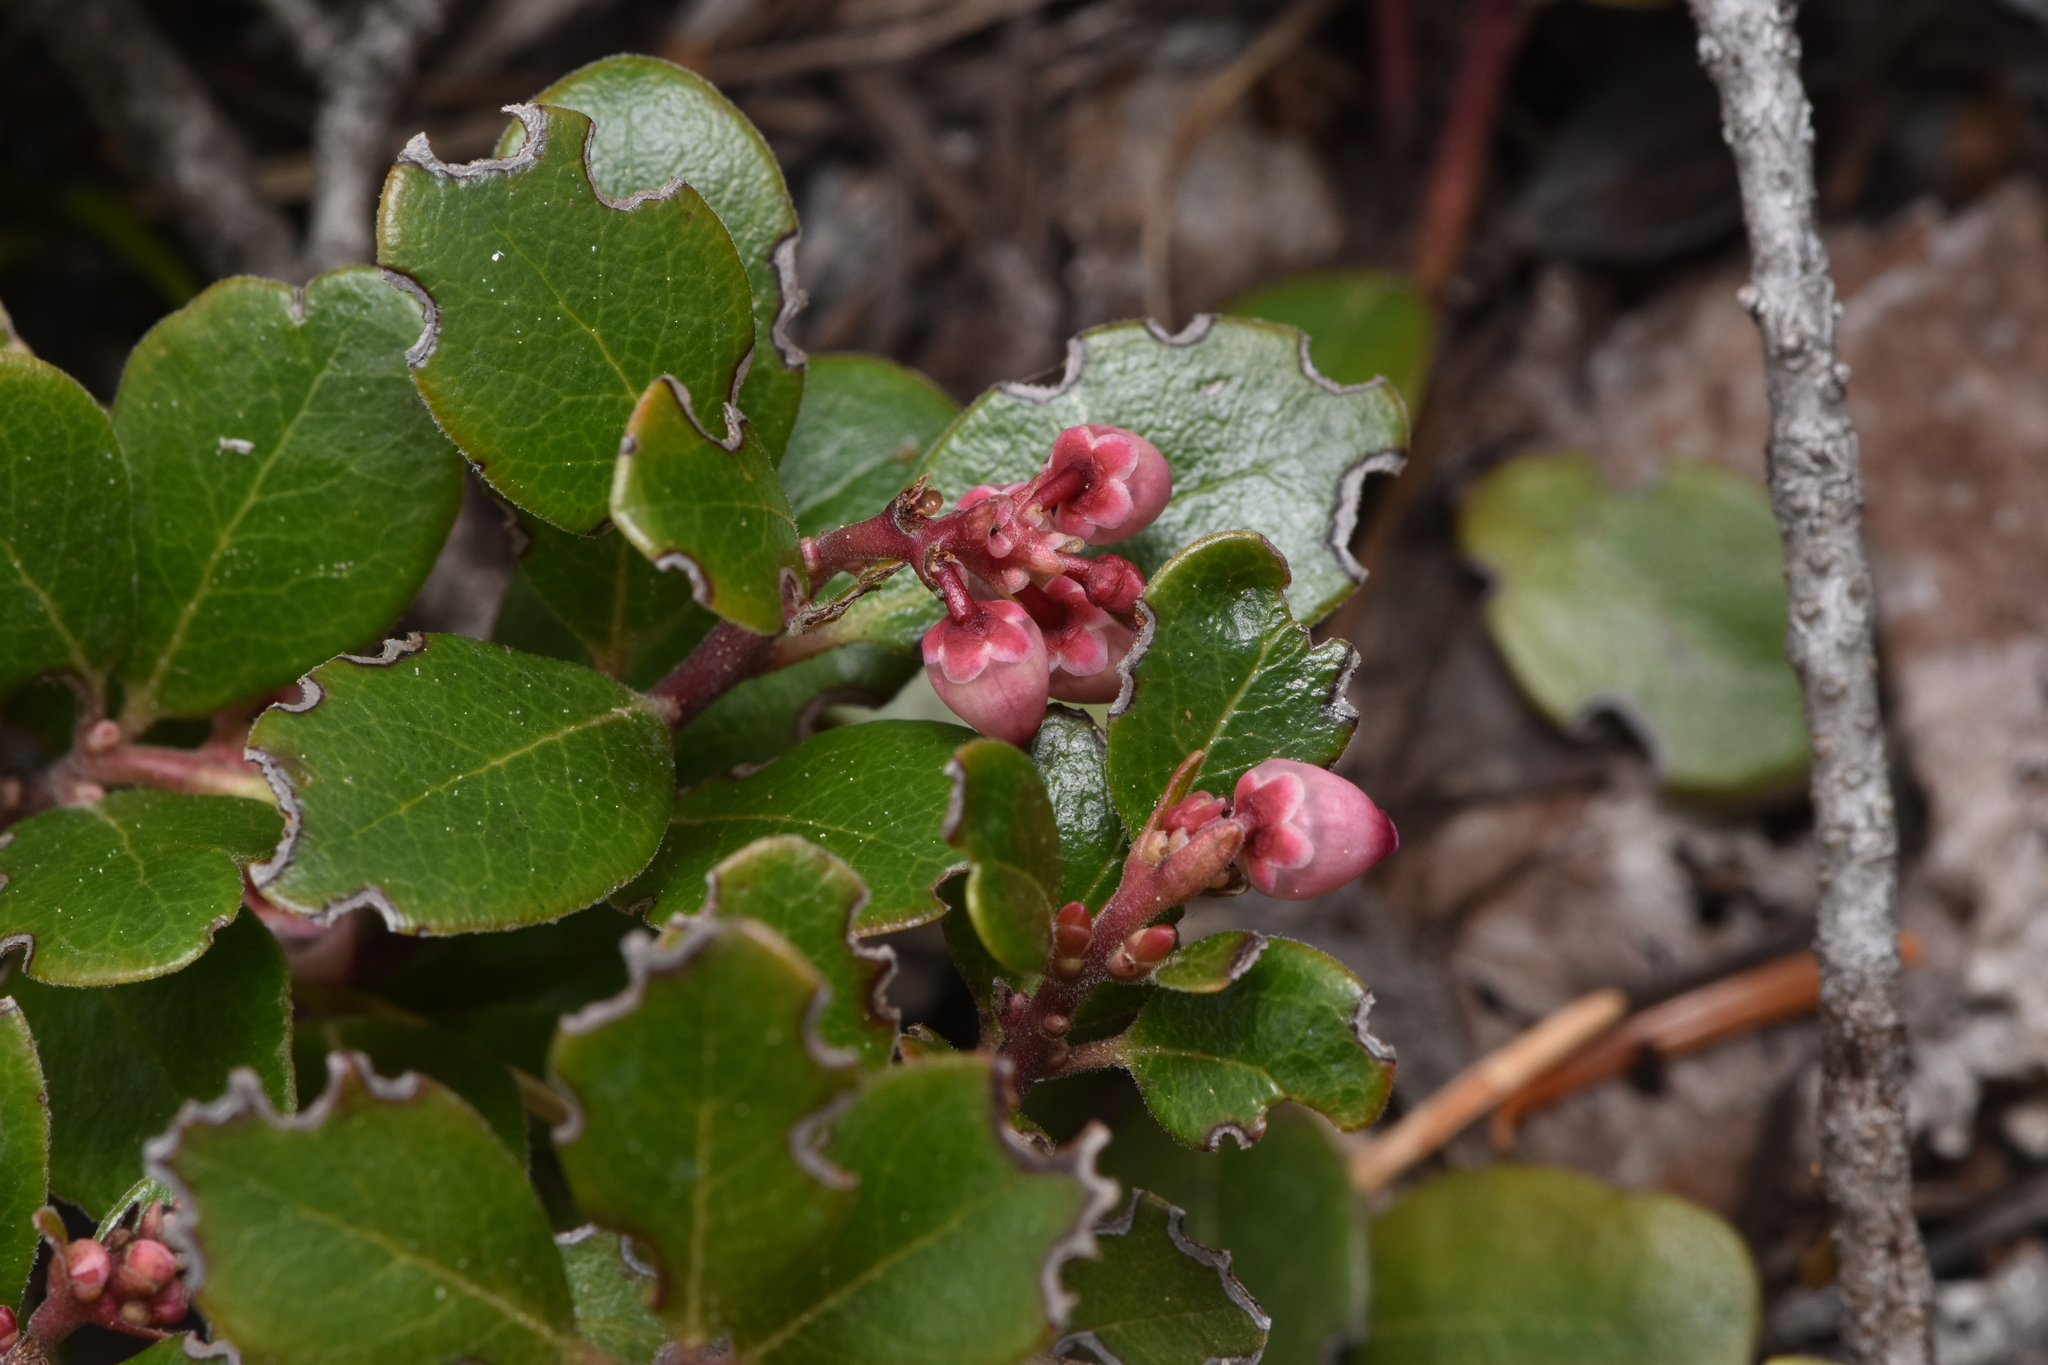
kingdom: Plantae
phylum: Tracheophyta
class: Magnoliopsida
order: Ericales
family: Ericaceae
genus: Arctostaphylos
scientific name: Arctostaphylos uva-ursi
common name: Bearberry
